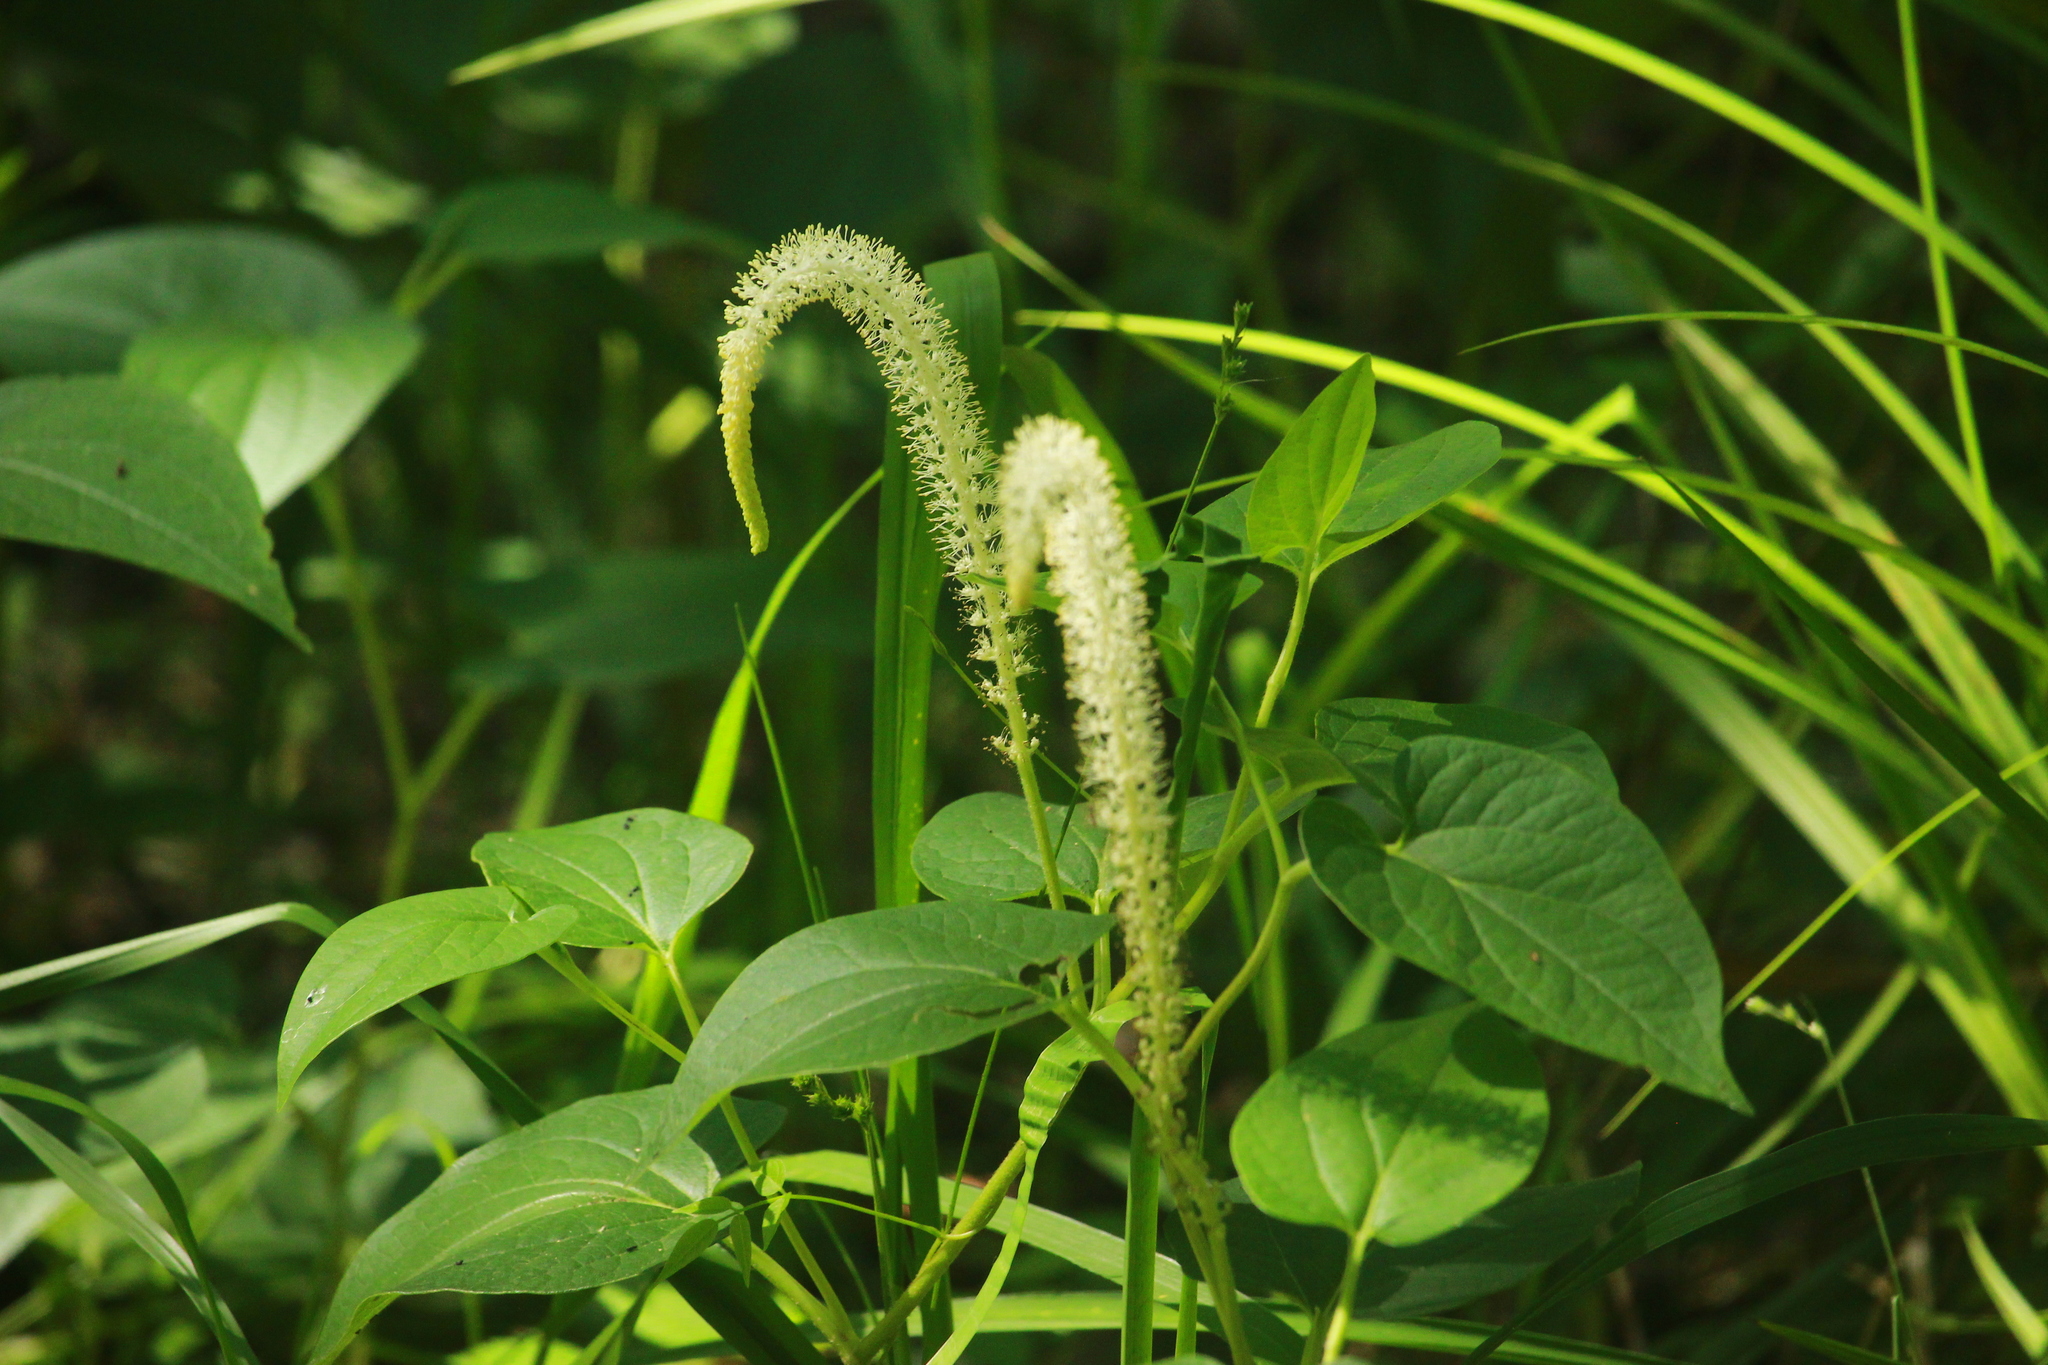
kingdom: Plantae
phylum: Tracheophyta
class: Magnoliopsida
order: Piperales
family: Saururaceae
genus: Saururus
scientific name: Saururus cernuus
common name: Lizard's-tail
